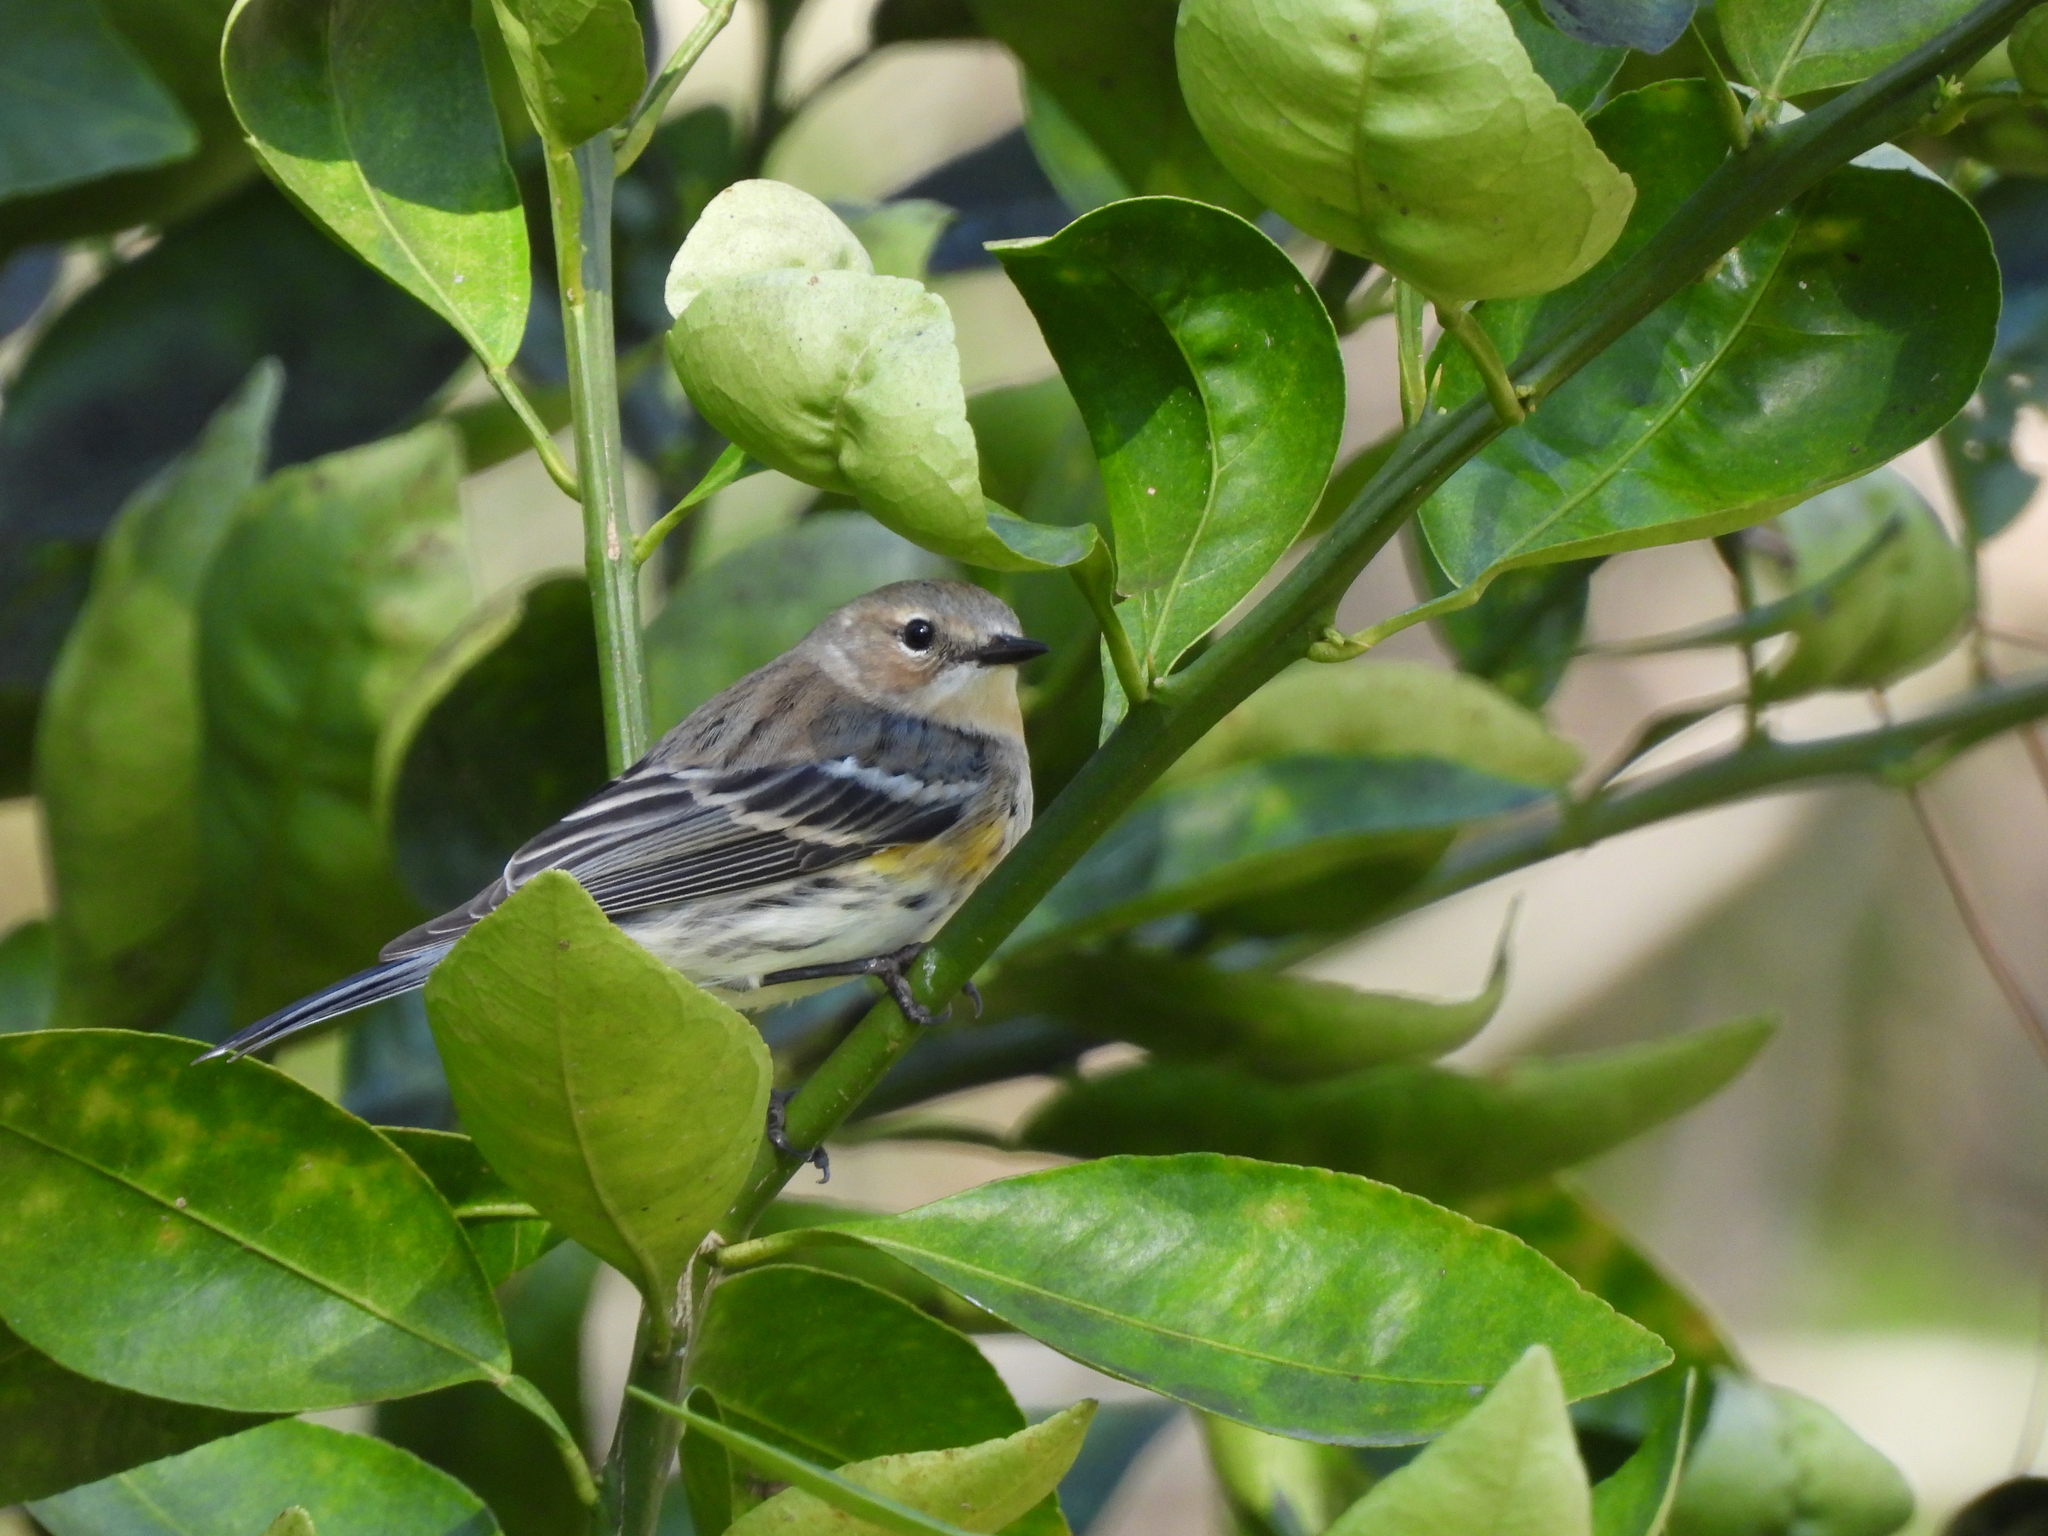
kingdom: Animalia
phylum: Chordata
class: Aves
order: Passeriformes
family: Parulidae
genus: Setophaga
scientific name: Setophaga coronata
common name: Myrtle warbler
